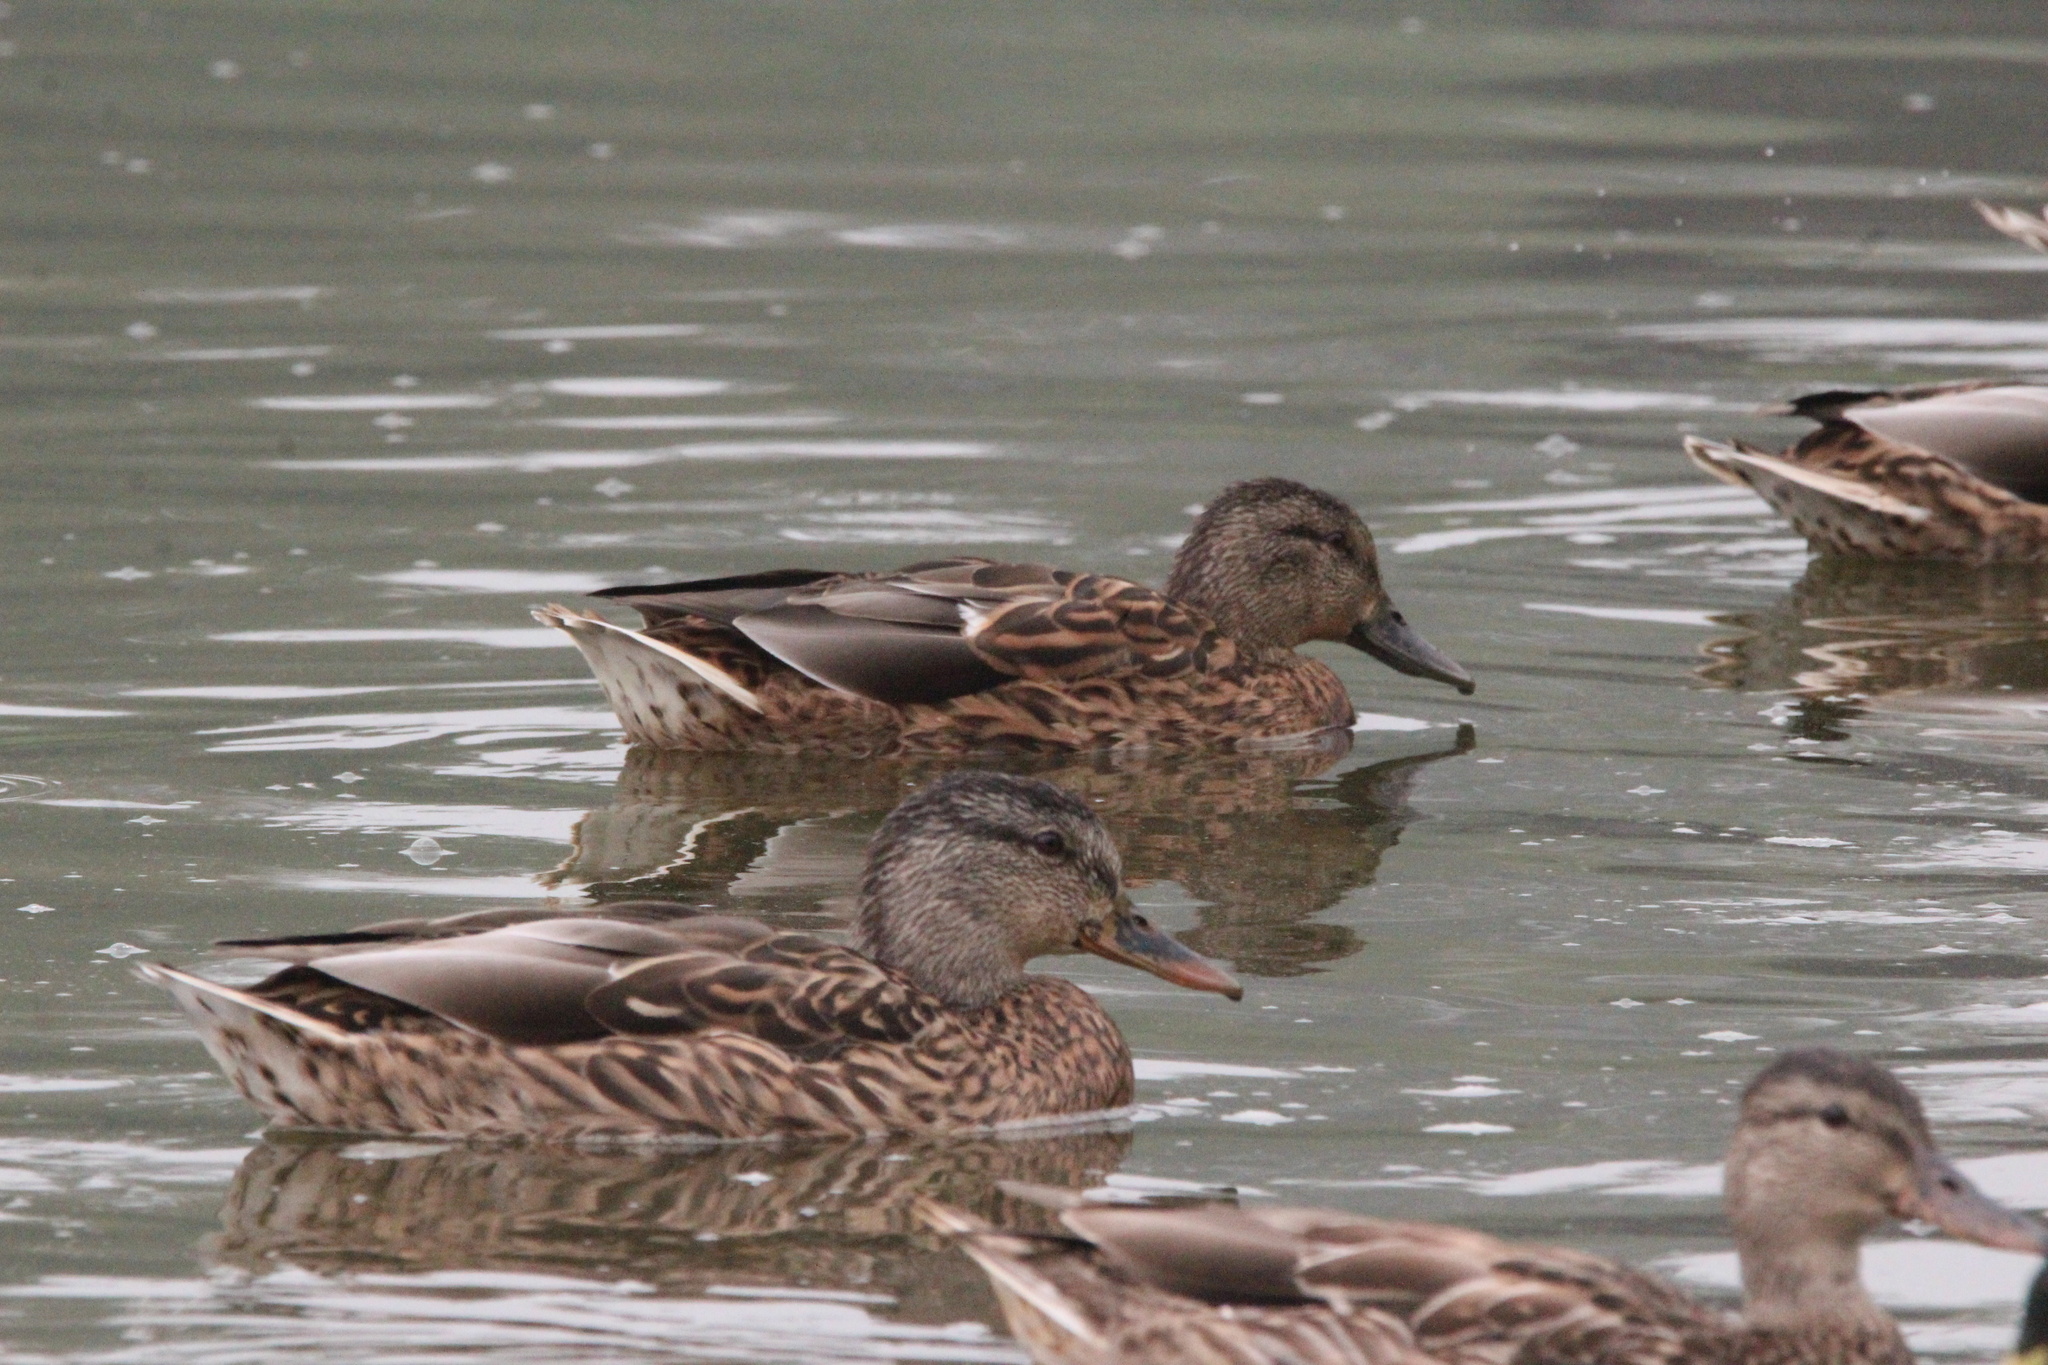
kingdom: Animalia
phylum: Chordata
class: Aves
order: Anseriformes
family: Anatidae
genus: Anas
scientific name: Anas platyrhynchos
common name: Mallard
